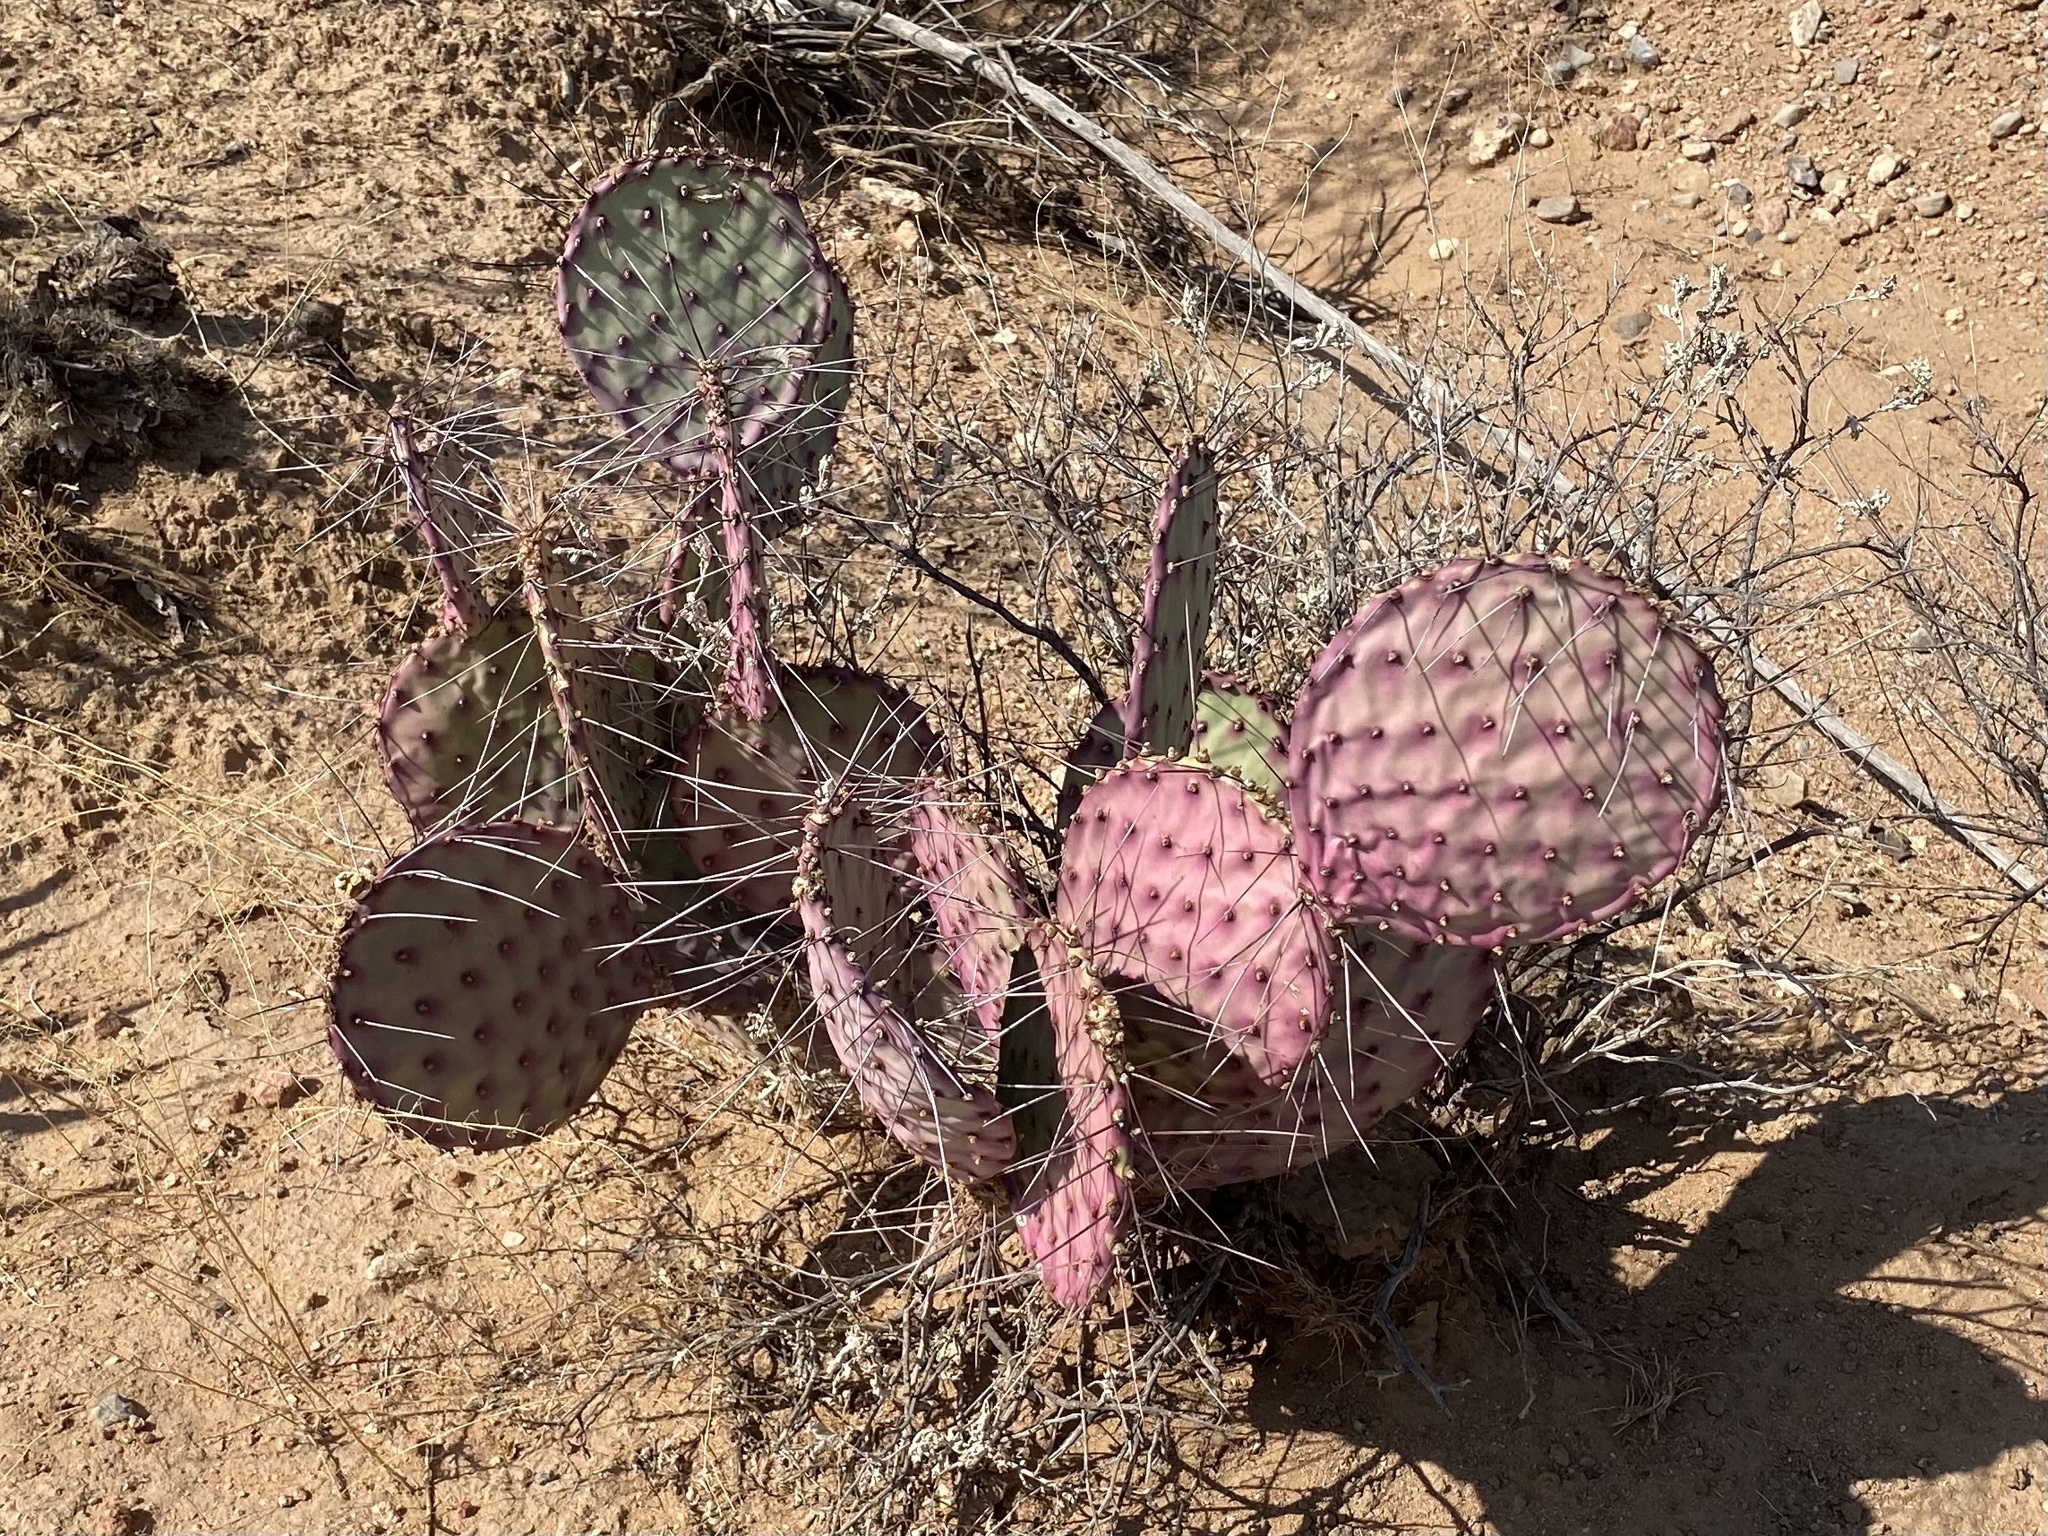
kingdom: Plantae
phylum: Tracheophyta
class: Magnoliopsida
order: Caryophyllales
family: Cactaceae
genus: Opuntia
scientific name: Opuntia macrocentra
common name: Purple prickly-pear
